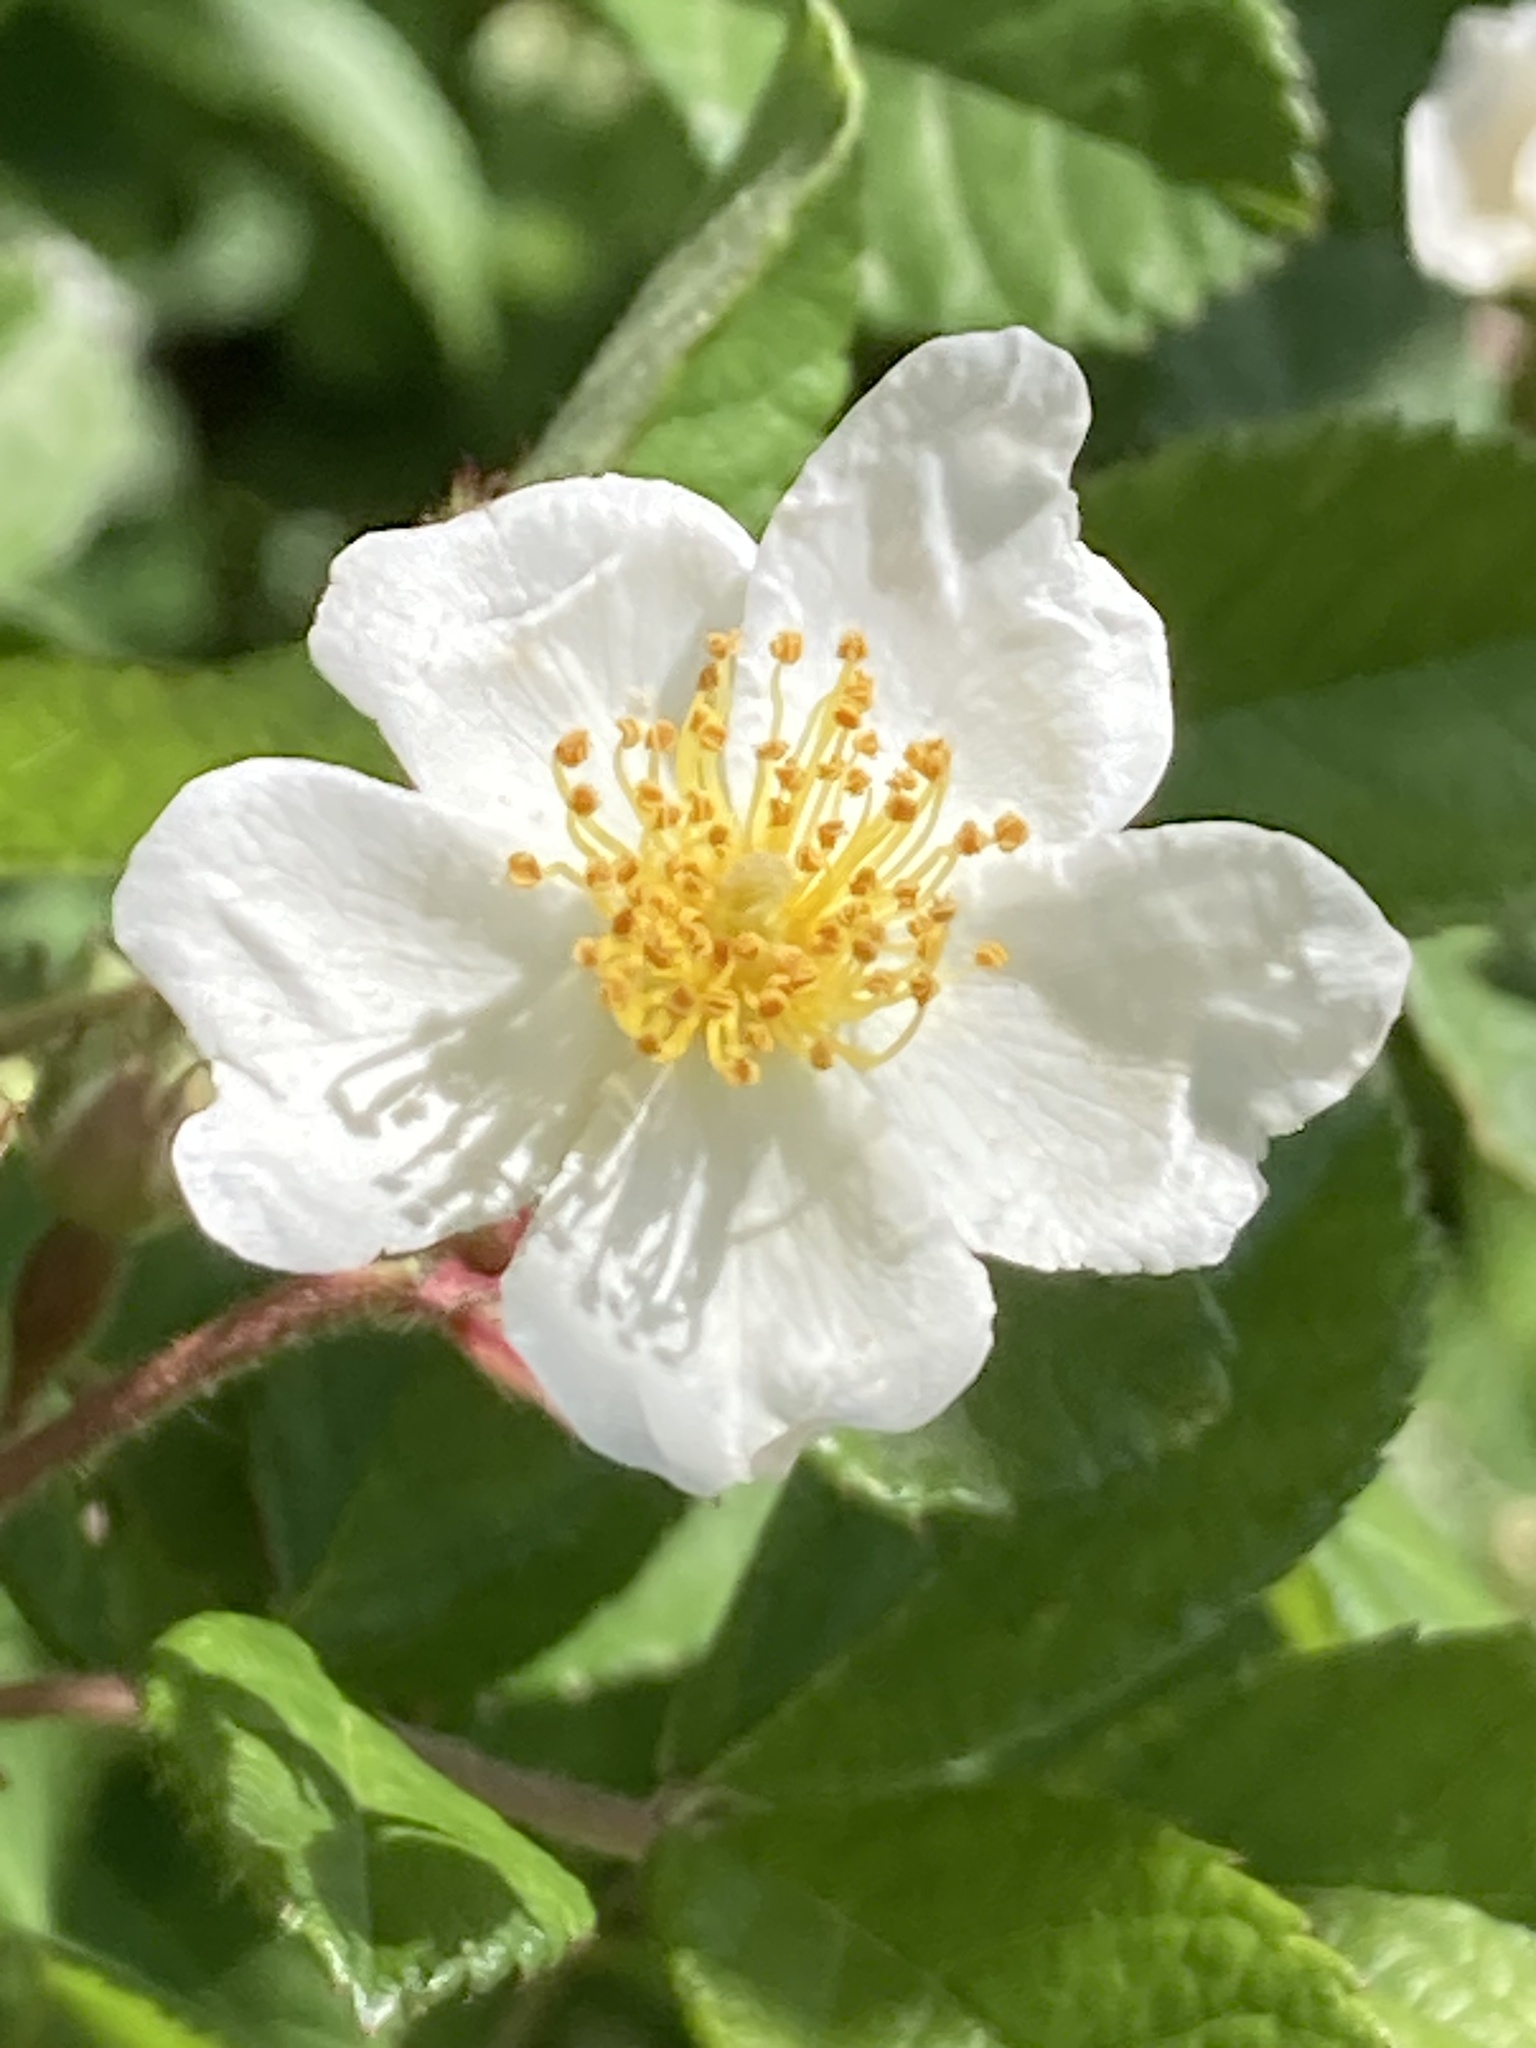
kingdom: Plantae
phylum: Tracheophyta
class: Magnoliopsida
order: Rosales
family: Rosaceae
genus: Rosa
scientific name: Rosa multiflora
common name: Multiflora rose
